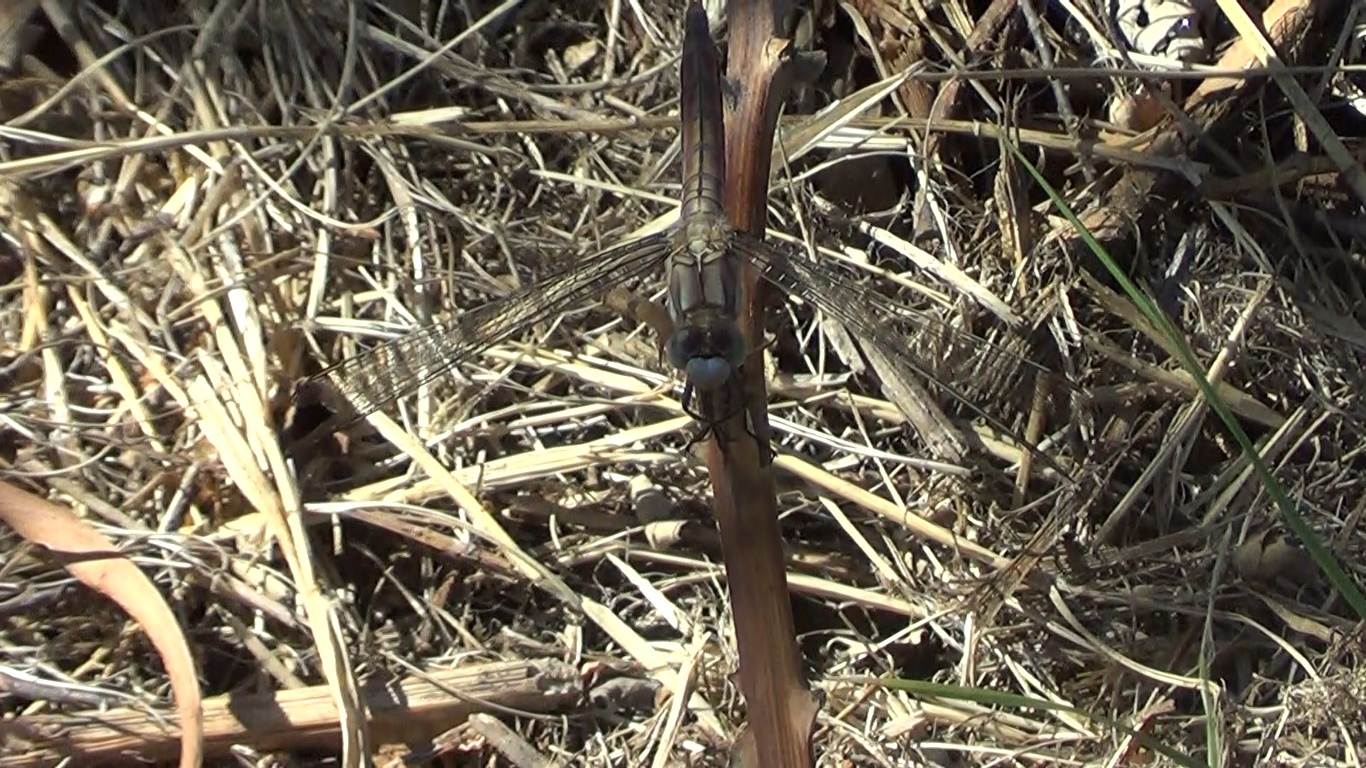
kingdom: Animalia
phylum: Arthropoda
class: Insecta
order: Odonata
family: Libellulidae
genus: Orthetrum
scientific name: Orthetrum brunneum
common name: Southern skimmer
